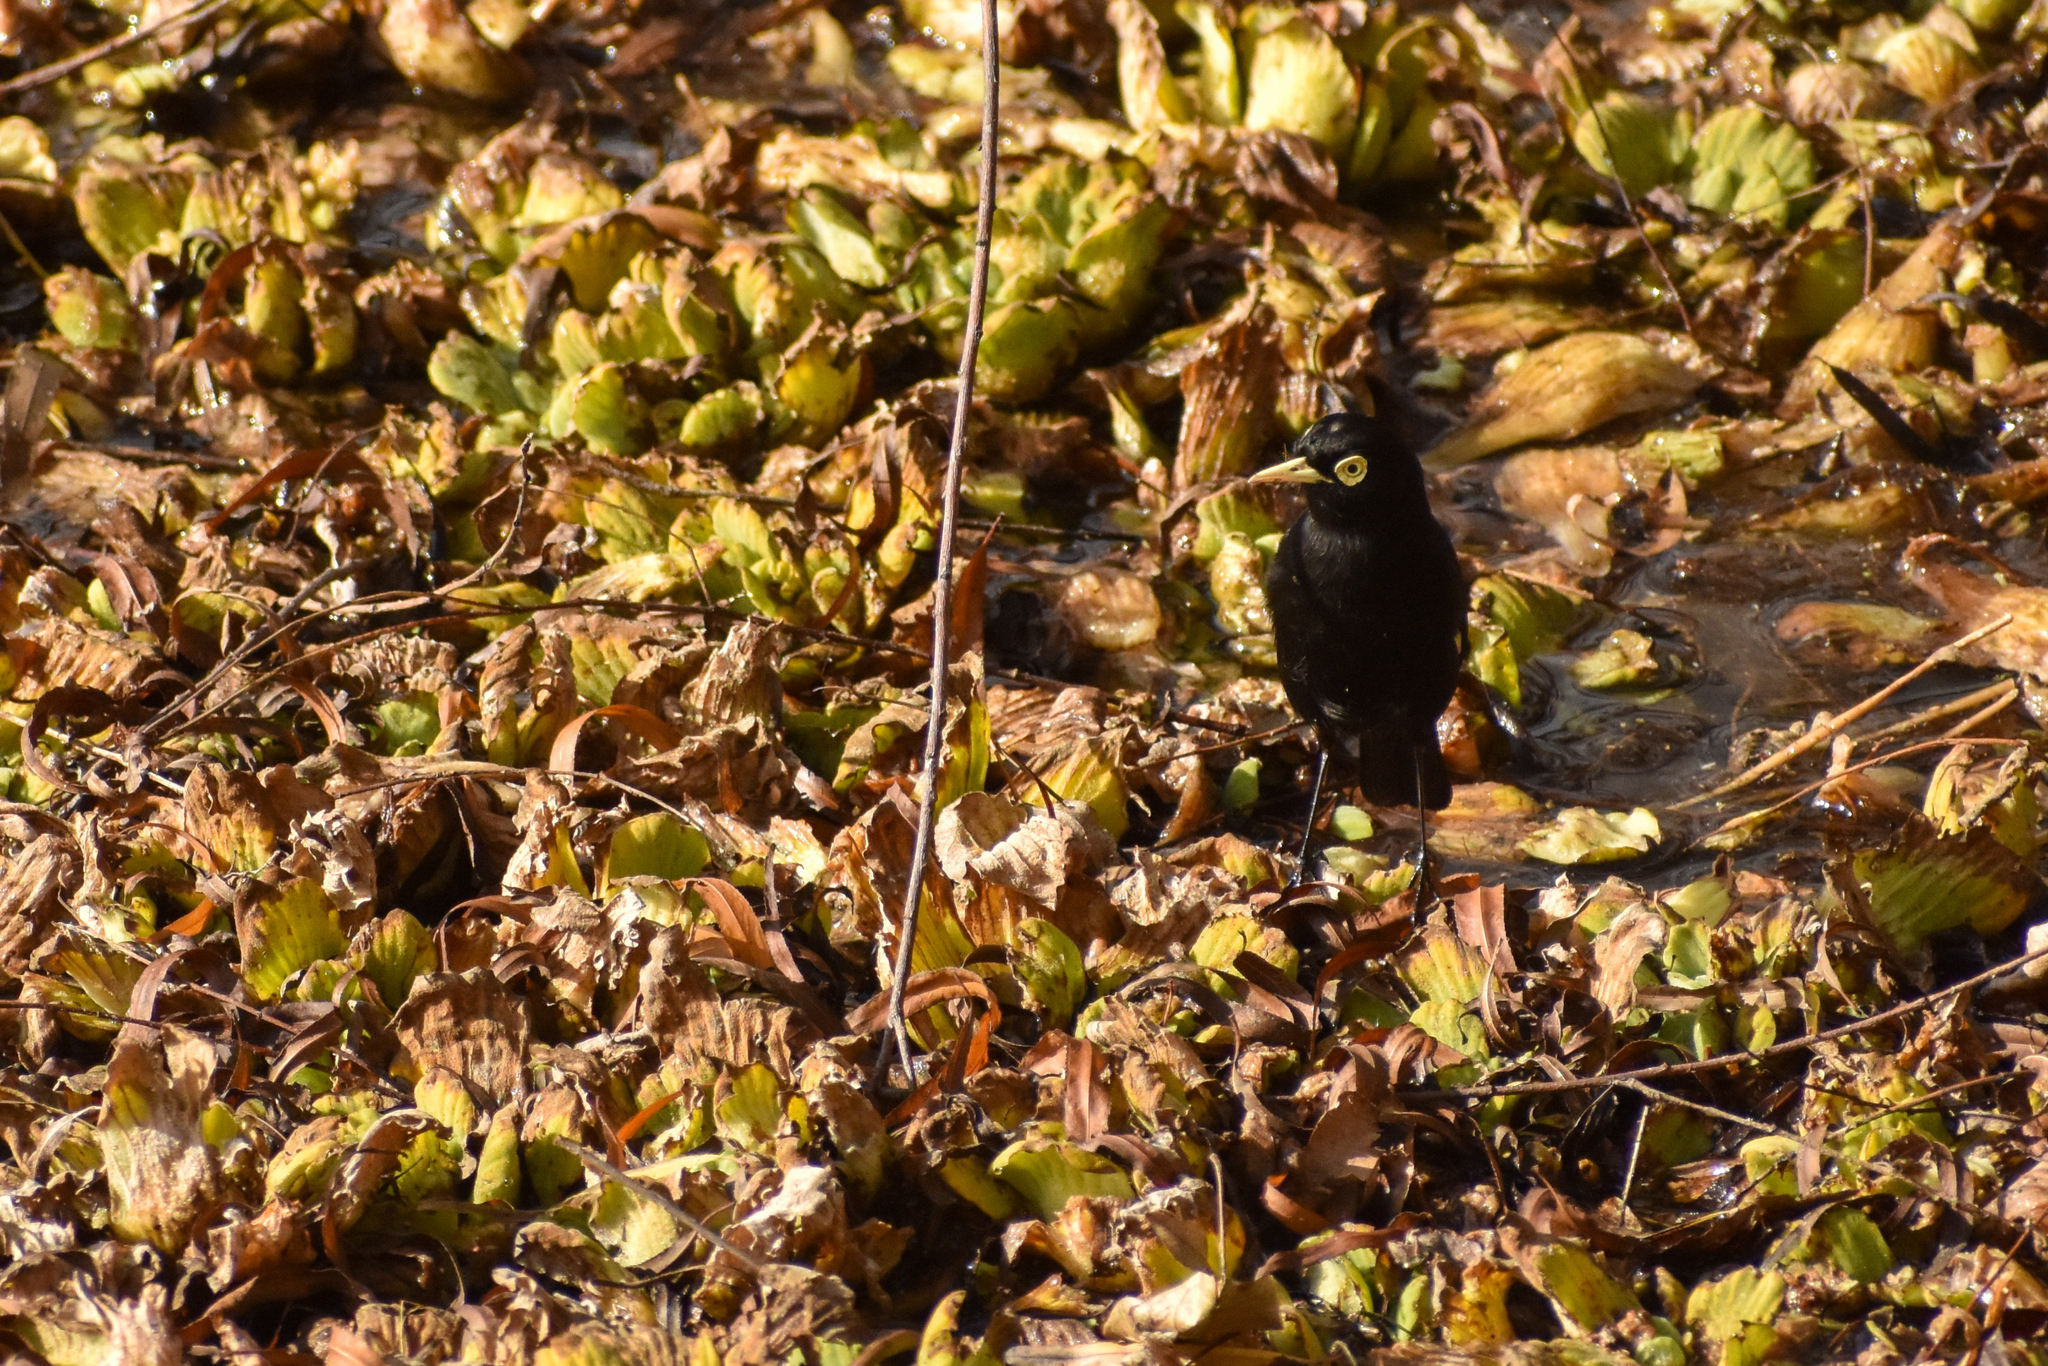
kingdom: Animalia
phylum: Chordata
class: Aves
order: Passeriformes
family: Tyrannidae
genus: Hymenops
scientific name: Hymenops perspicillatus
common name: Spectacled tyrant
